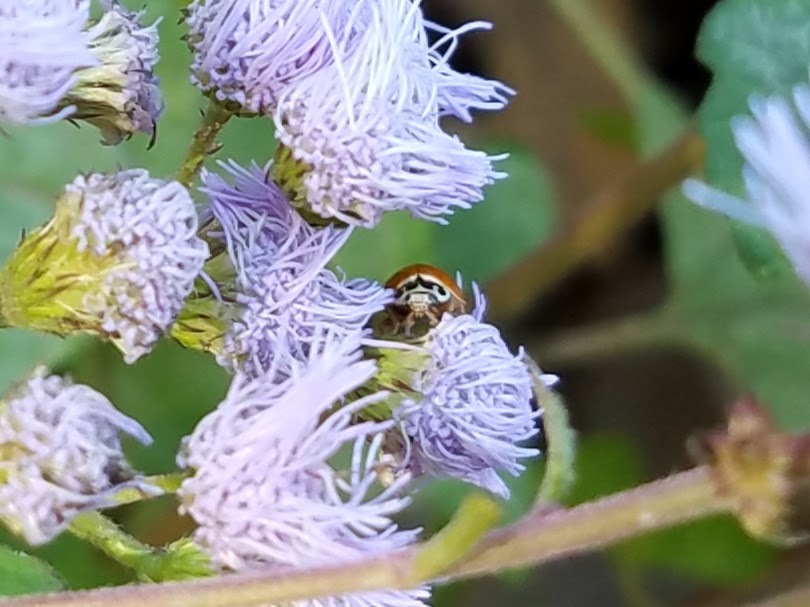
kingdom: Animalia
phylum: Arthropoda
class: Insecta
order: Coleoptera
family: Coccinellidae
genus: Cycloneda
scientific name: Cycloneda munda
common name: Polished lady beetle
